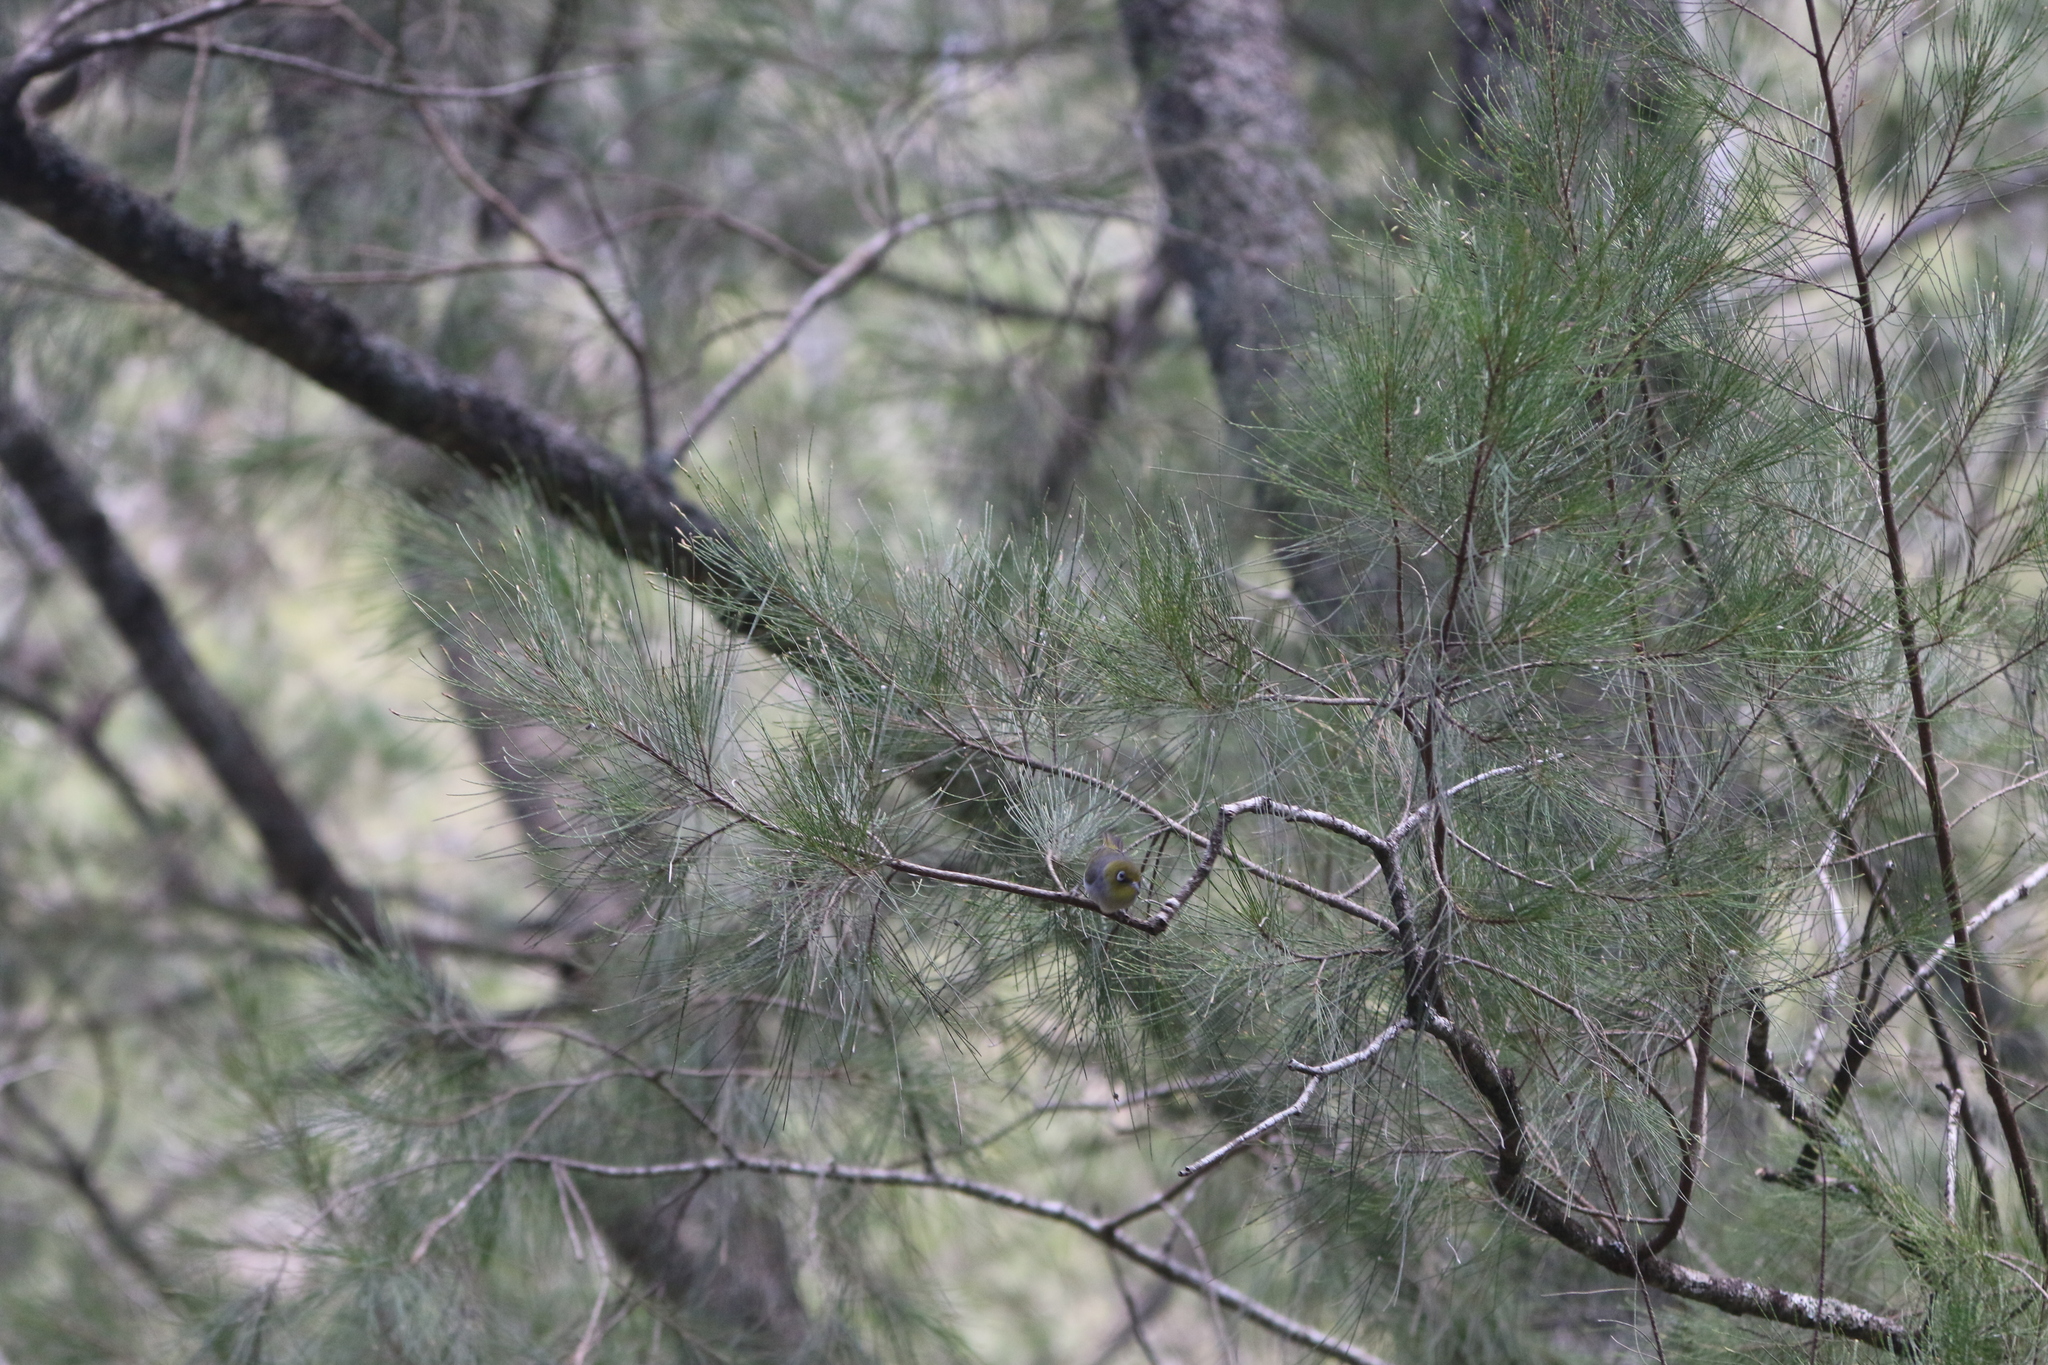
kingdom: Animalia
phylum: Chordata
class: Aves
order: Passeriformes
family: Zosteropidae
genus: Zosterops
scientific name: Zosterops lateralis
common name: Silvereye
